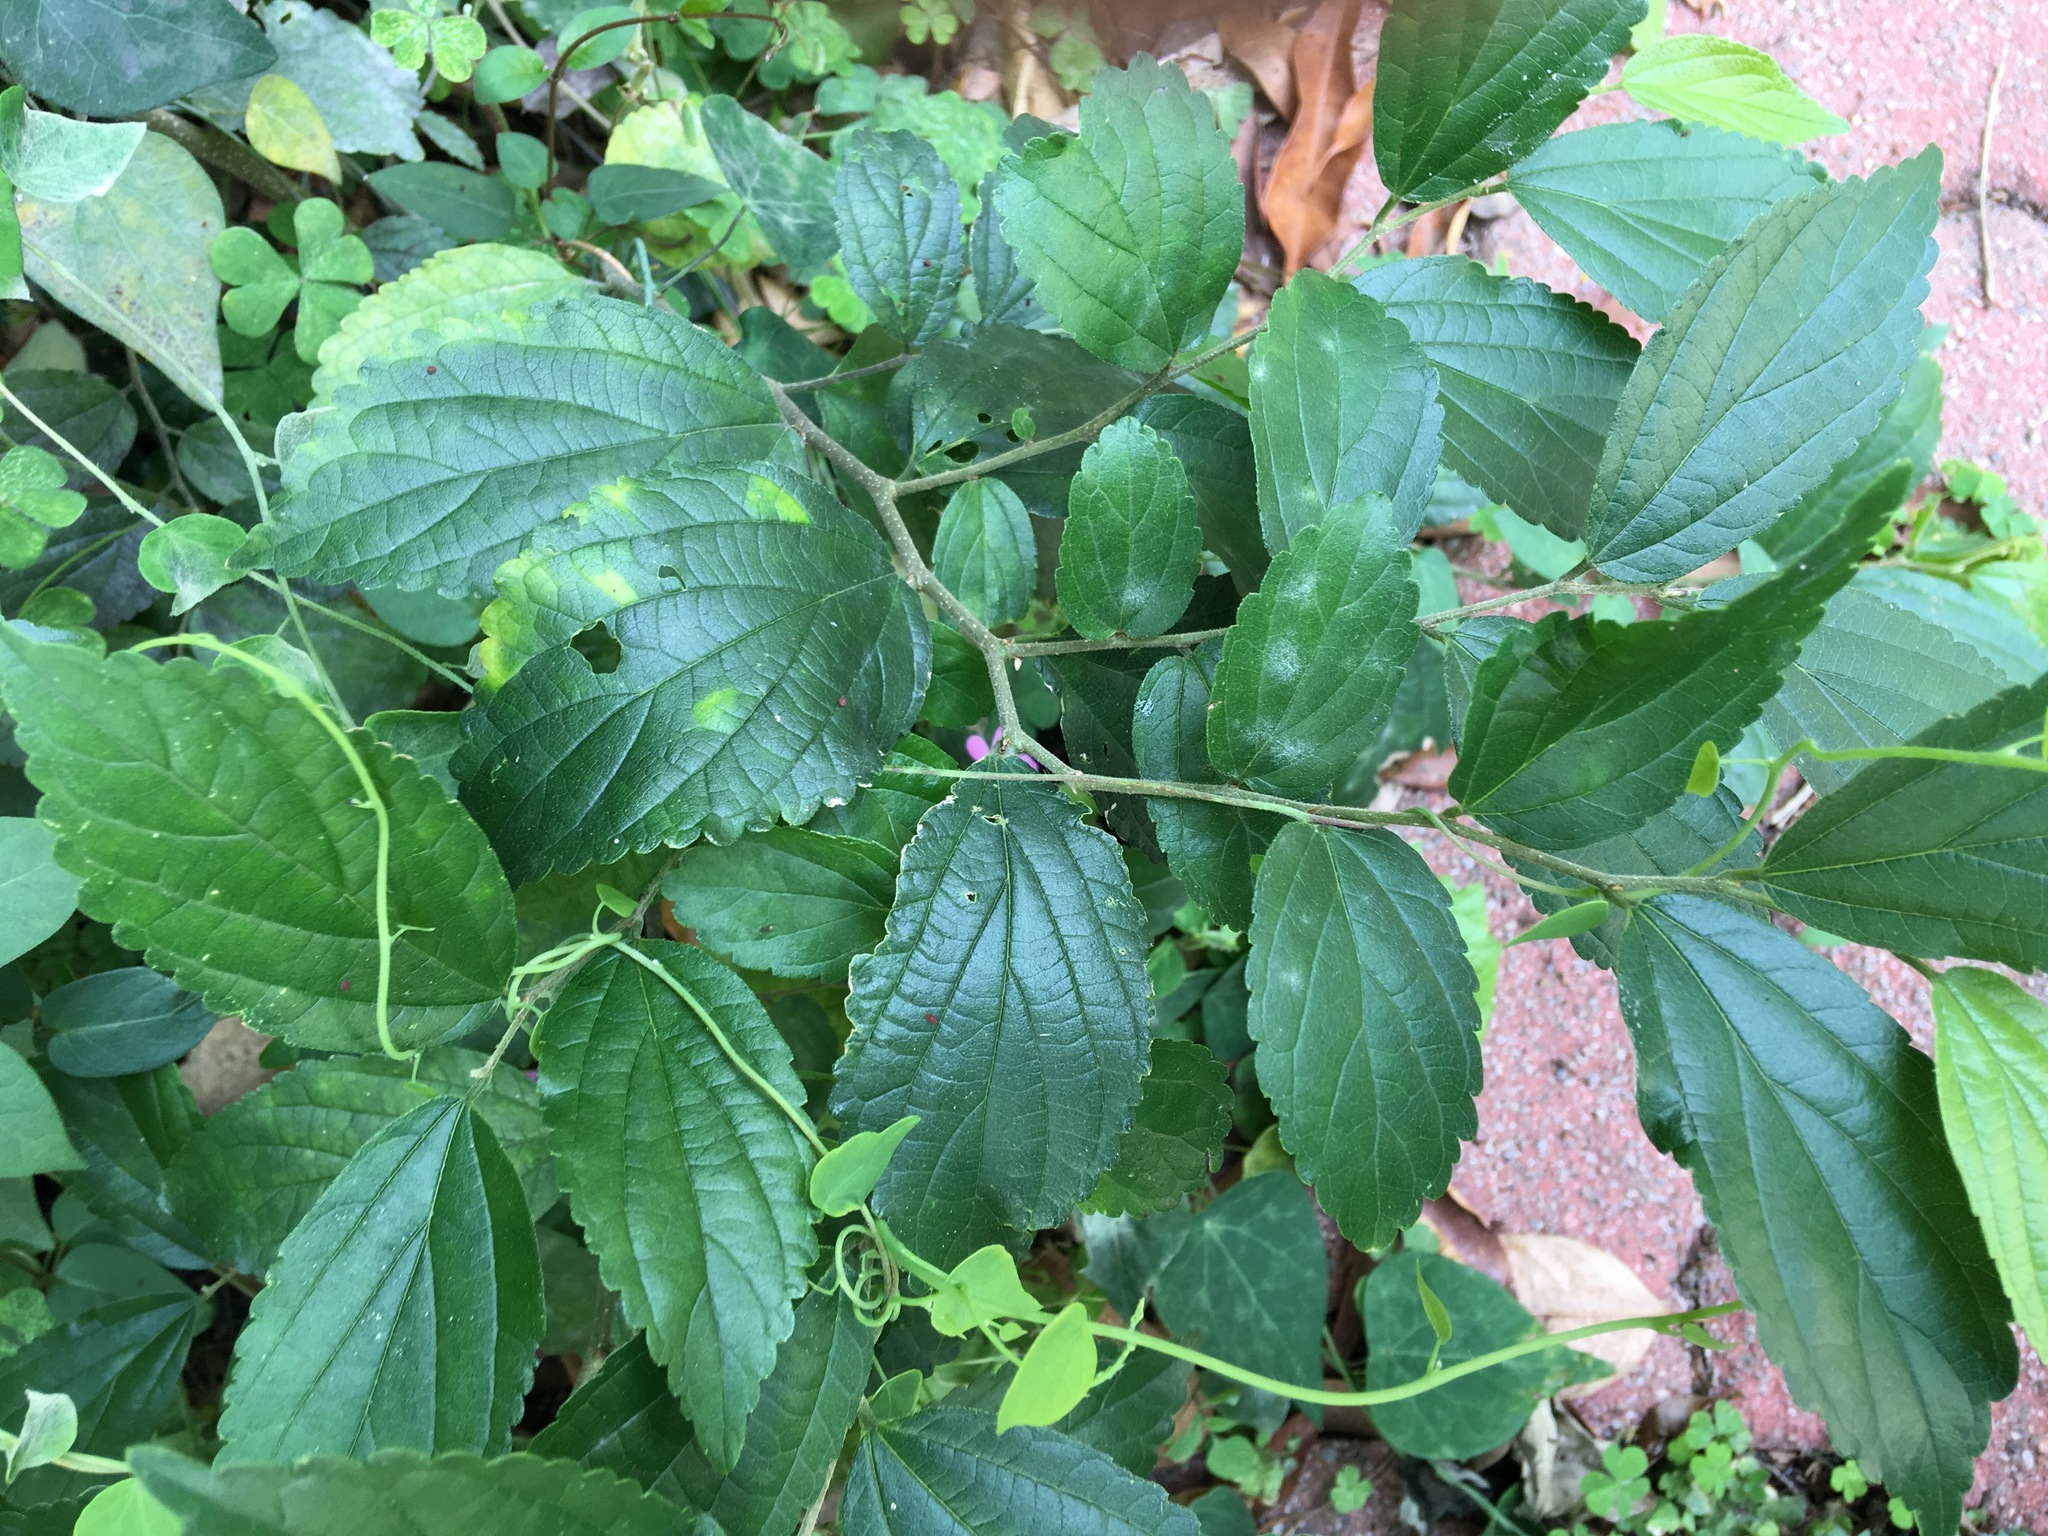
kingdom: Plantae
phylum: Tracheophyta
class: Magnoliopsida
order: Rosales
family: Cannabaceae
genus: Celtis
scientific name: Celtis sinensis
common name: Chinese hackberry
